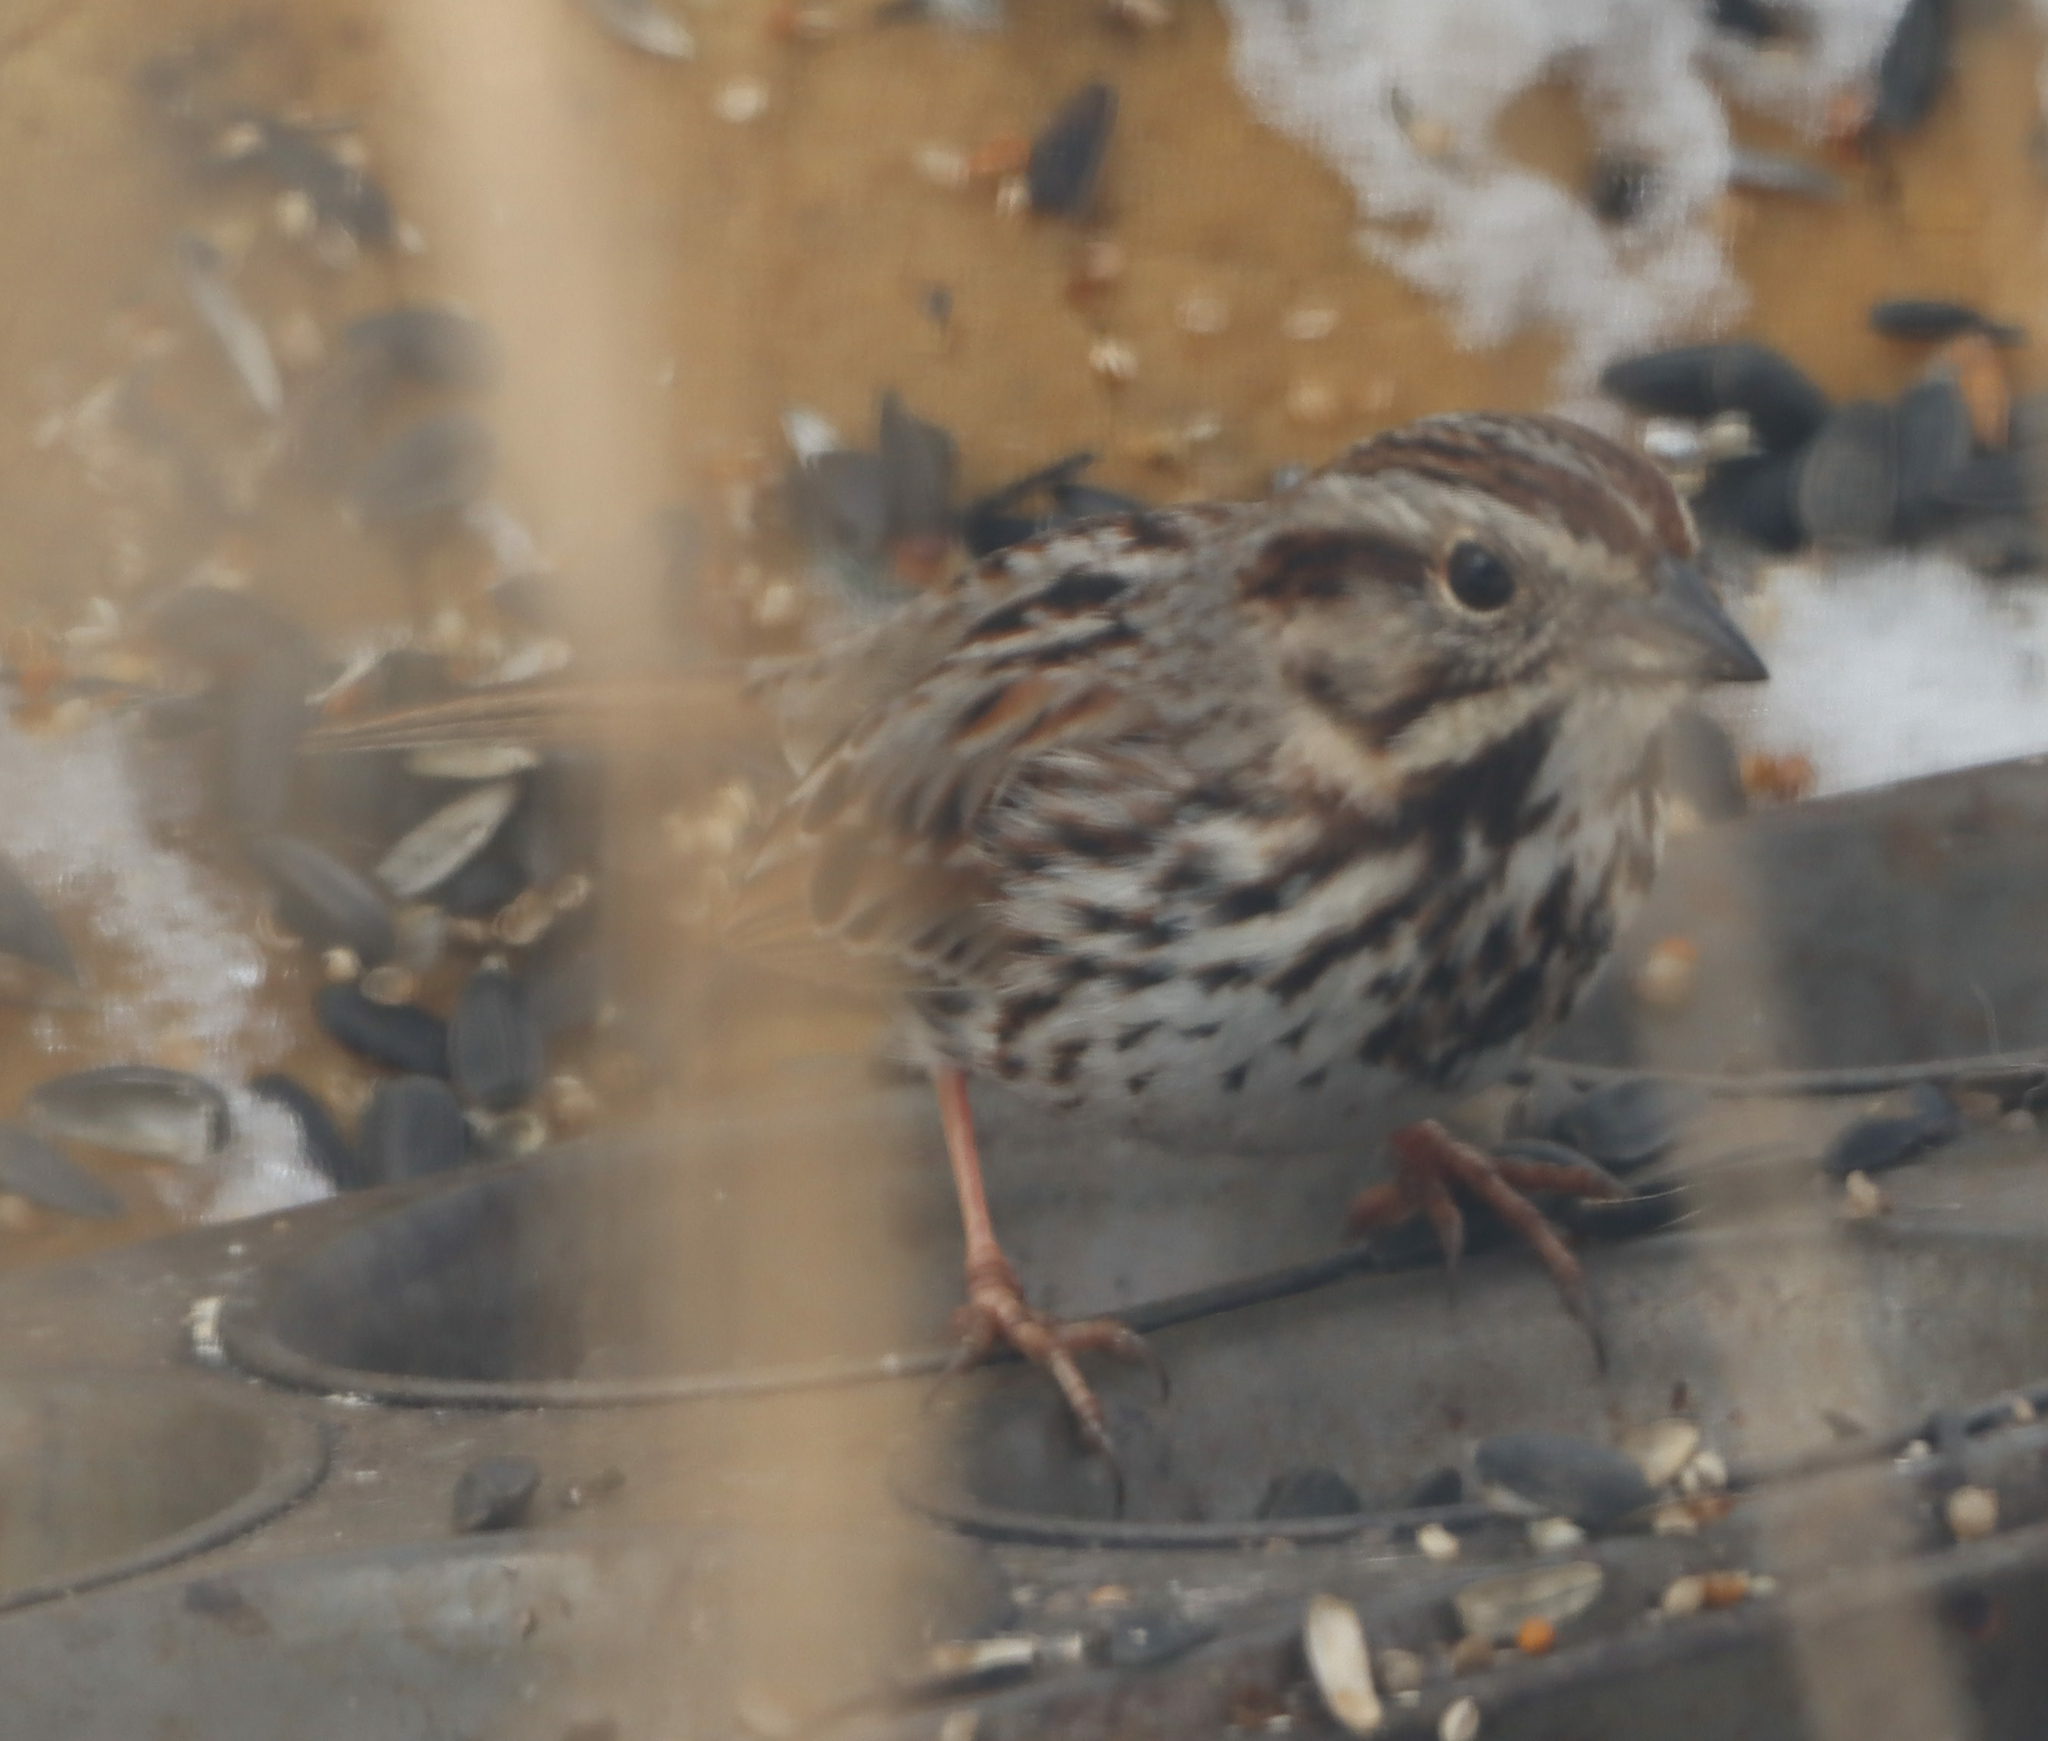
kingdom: Animalia
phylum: Chordata
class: Aves
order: Passeriformes
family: Passerellidae
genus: Melospiza
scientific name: Melospiza melodia
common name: Song sparrow
